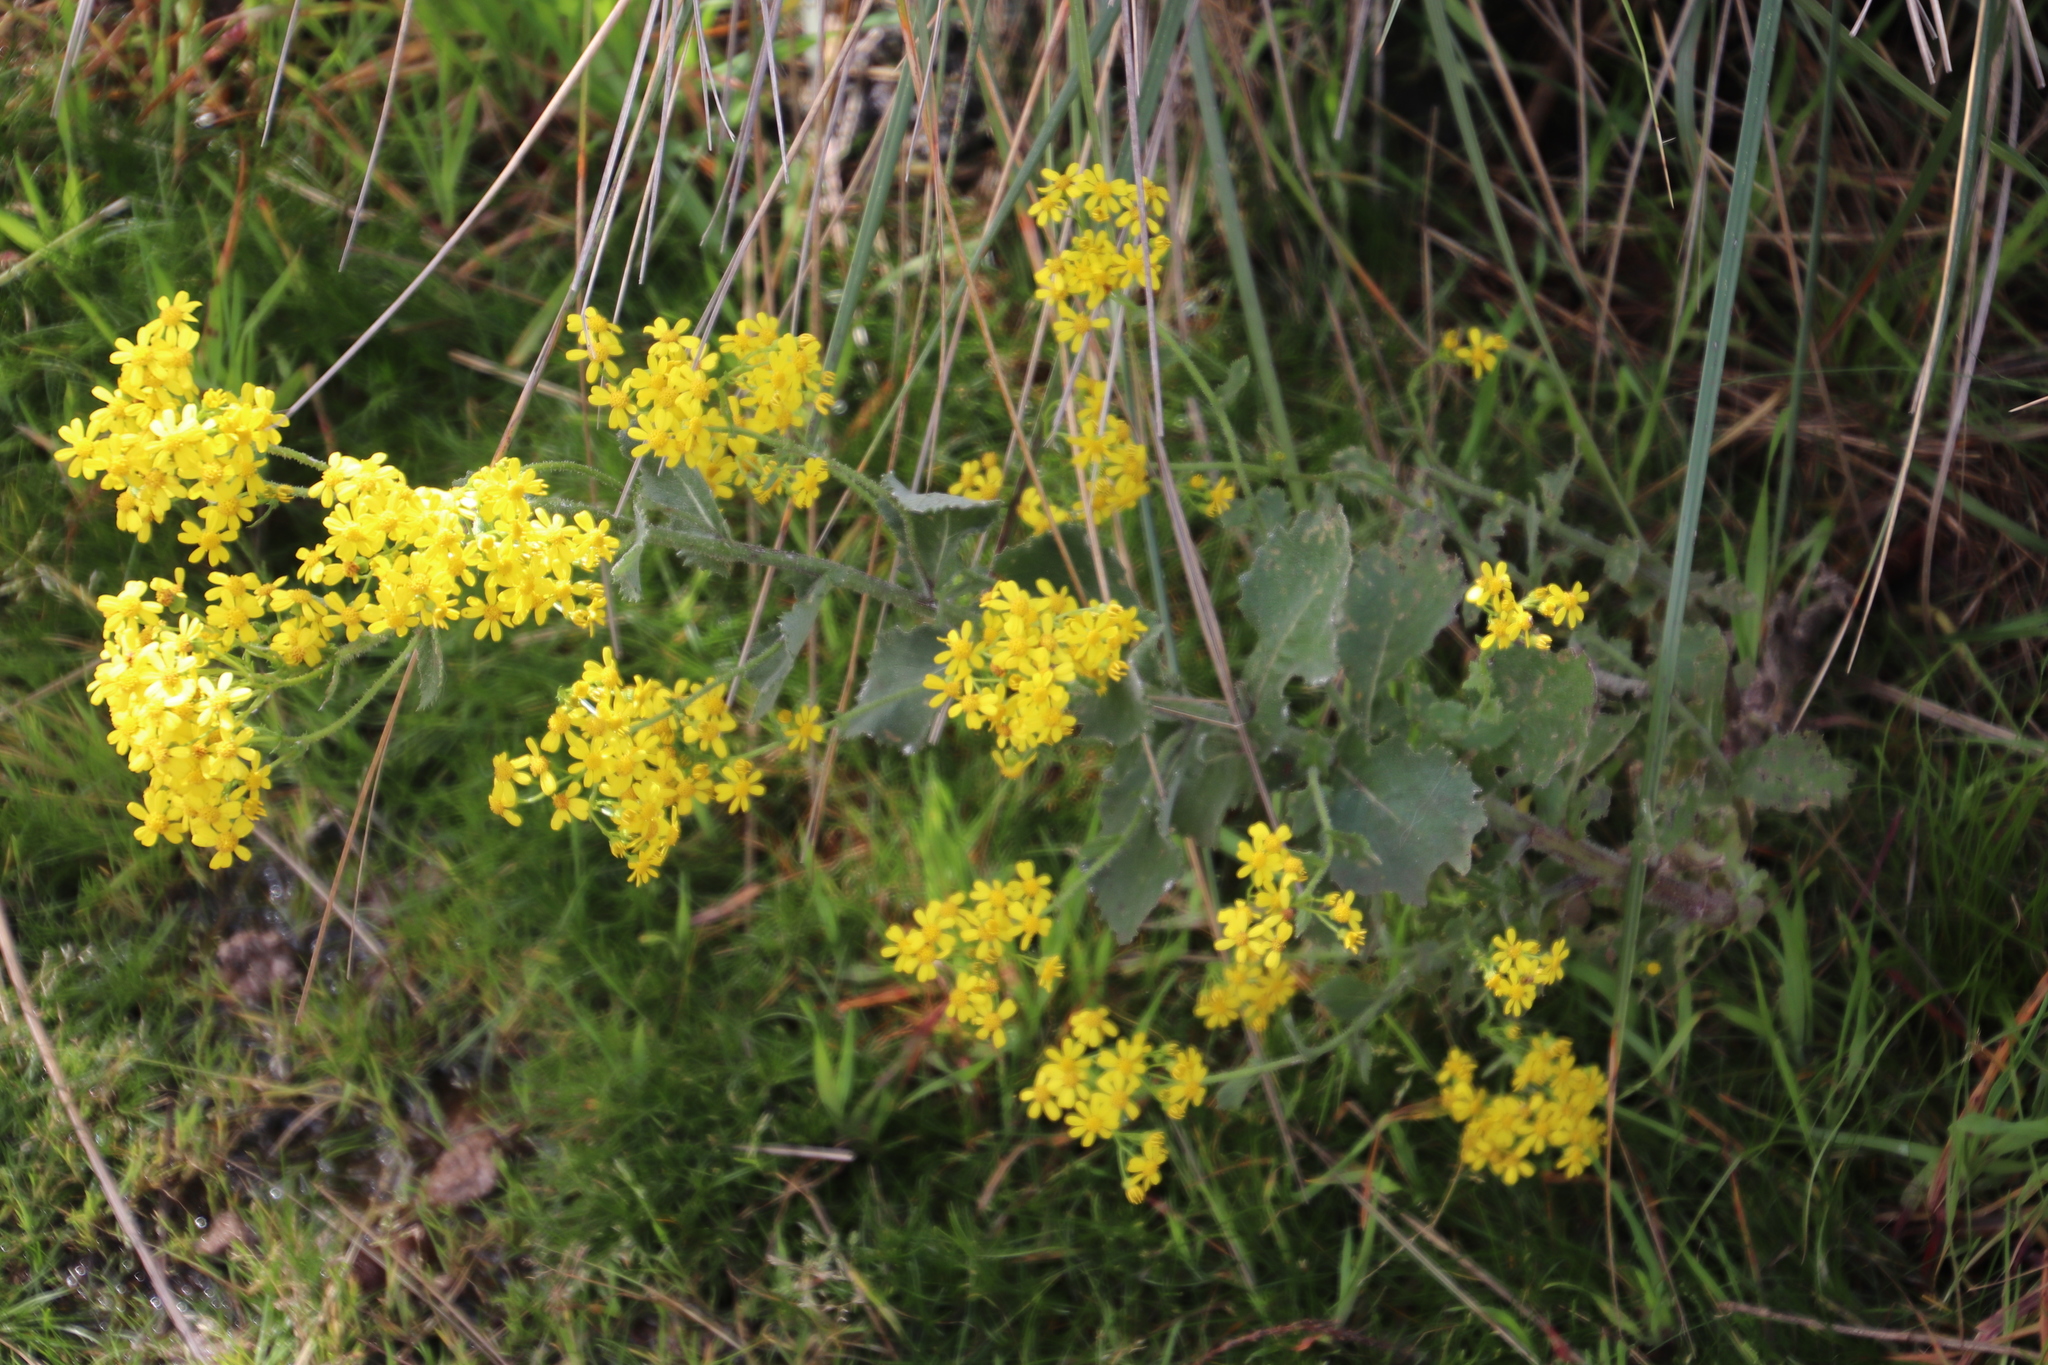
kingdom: Plantae
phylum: Tracheophyta
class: Magnoliopsida
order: Asterales
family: Asteraceae
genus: Senecio
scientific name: Senecio rigidus
